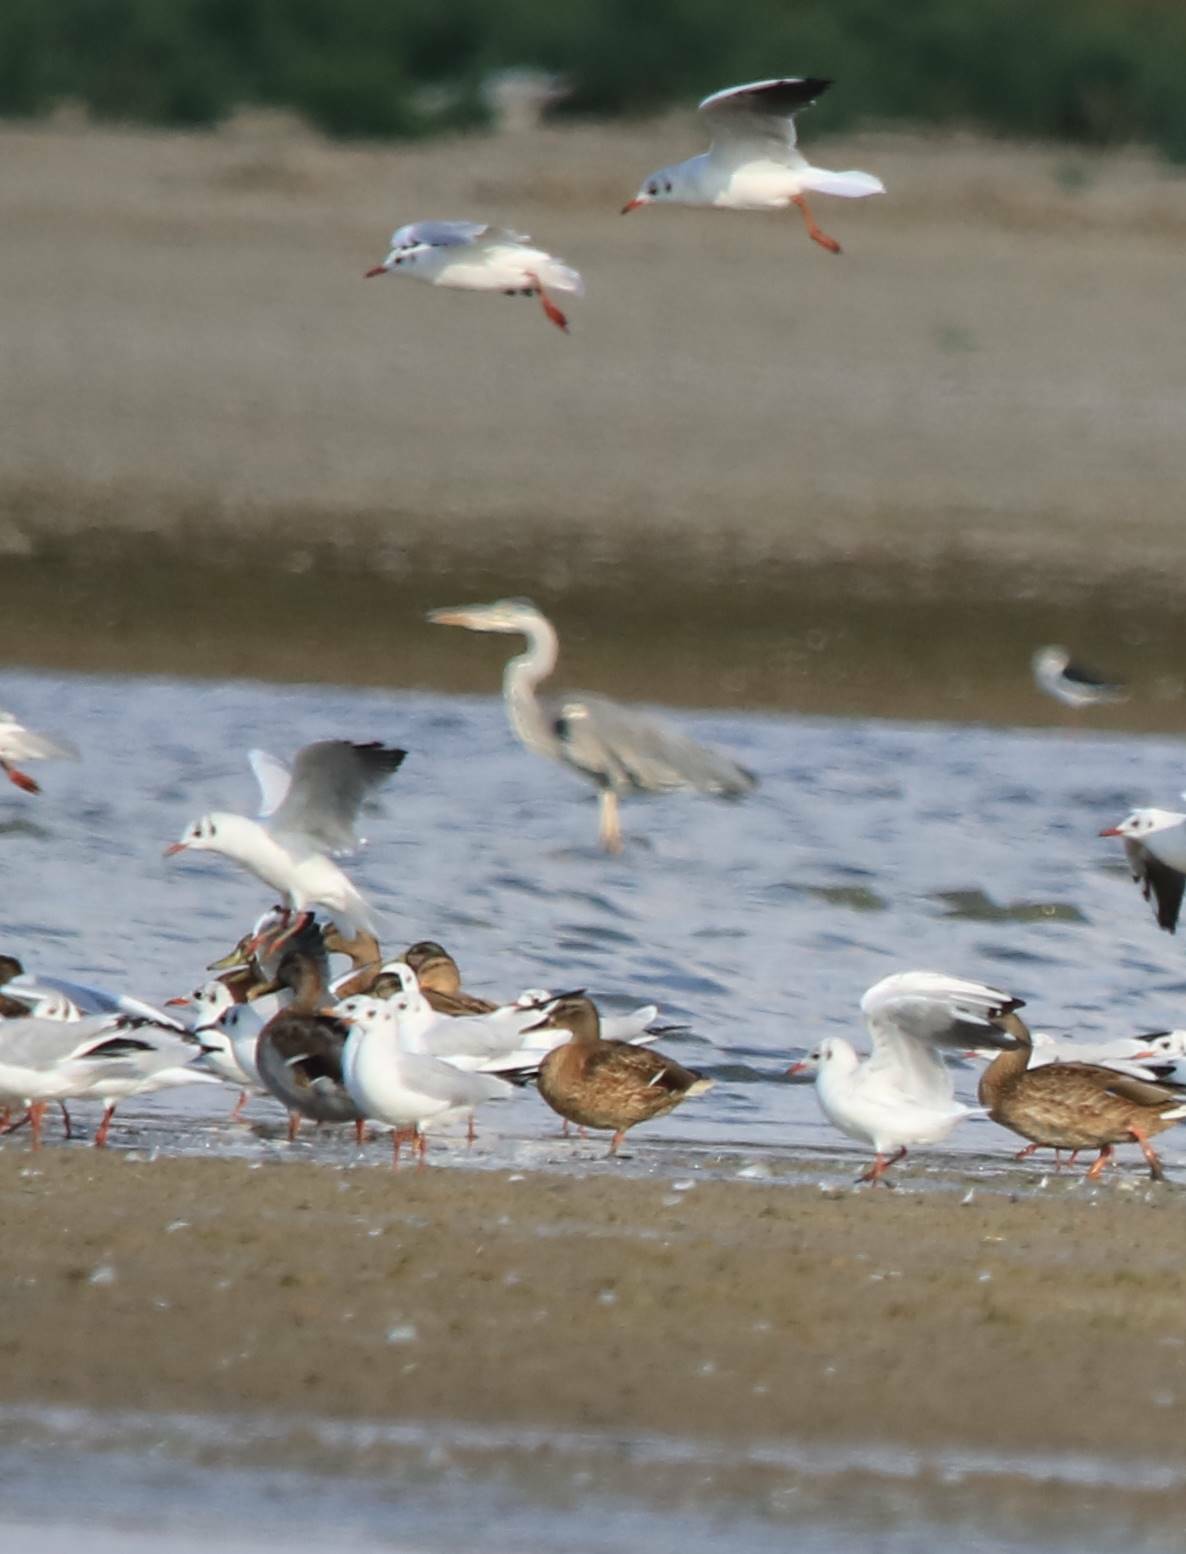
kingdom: Animalia
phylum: Chordata
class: Aves
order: Charadriiformes
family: Laridae
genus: Chroicocephalus
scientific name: Chroicocephalus ridibundus
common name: Black-headed gull
